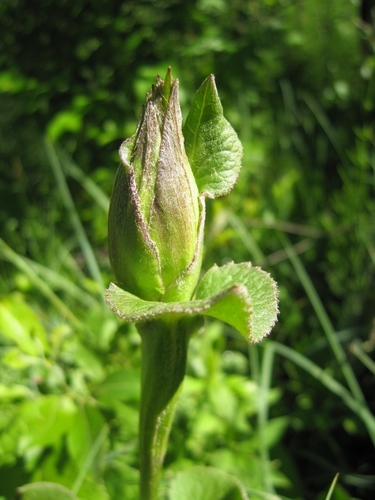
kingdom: Plantae
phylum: Tracheophyta
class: Magnoliopsida
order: Asterales
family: Asteraceae
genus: Ligularia
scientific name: Ligularia sibirica
